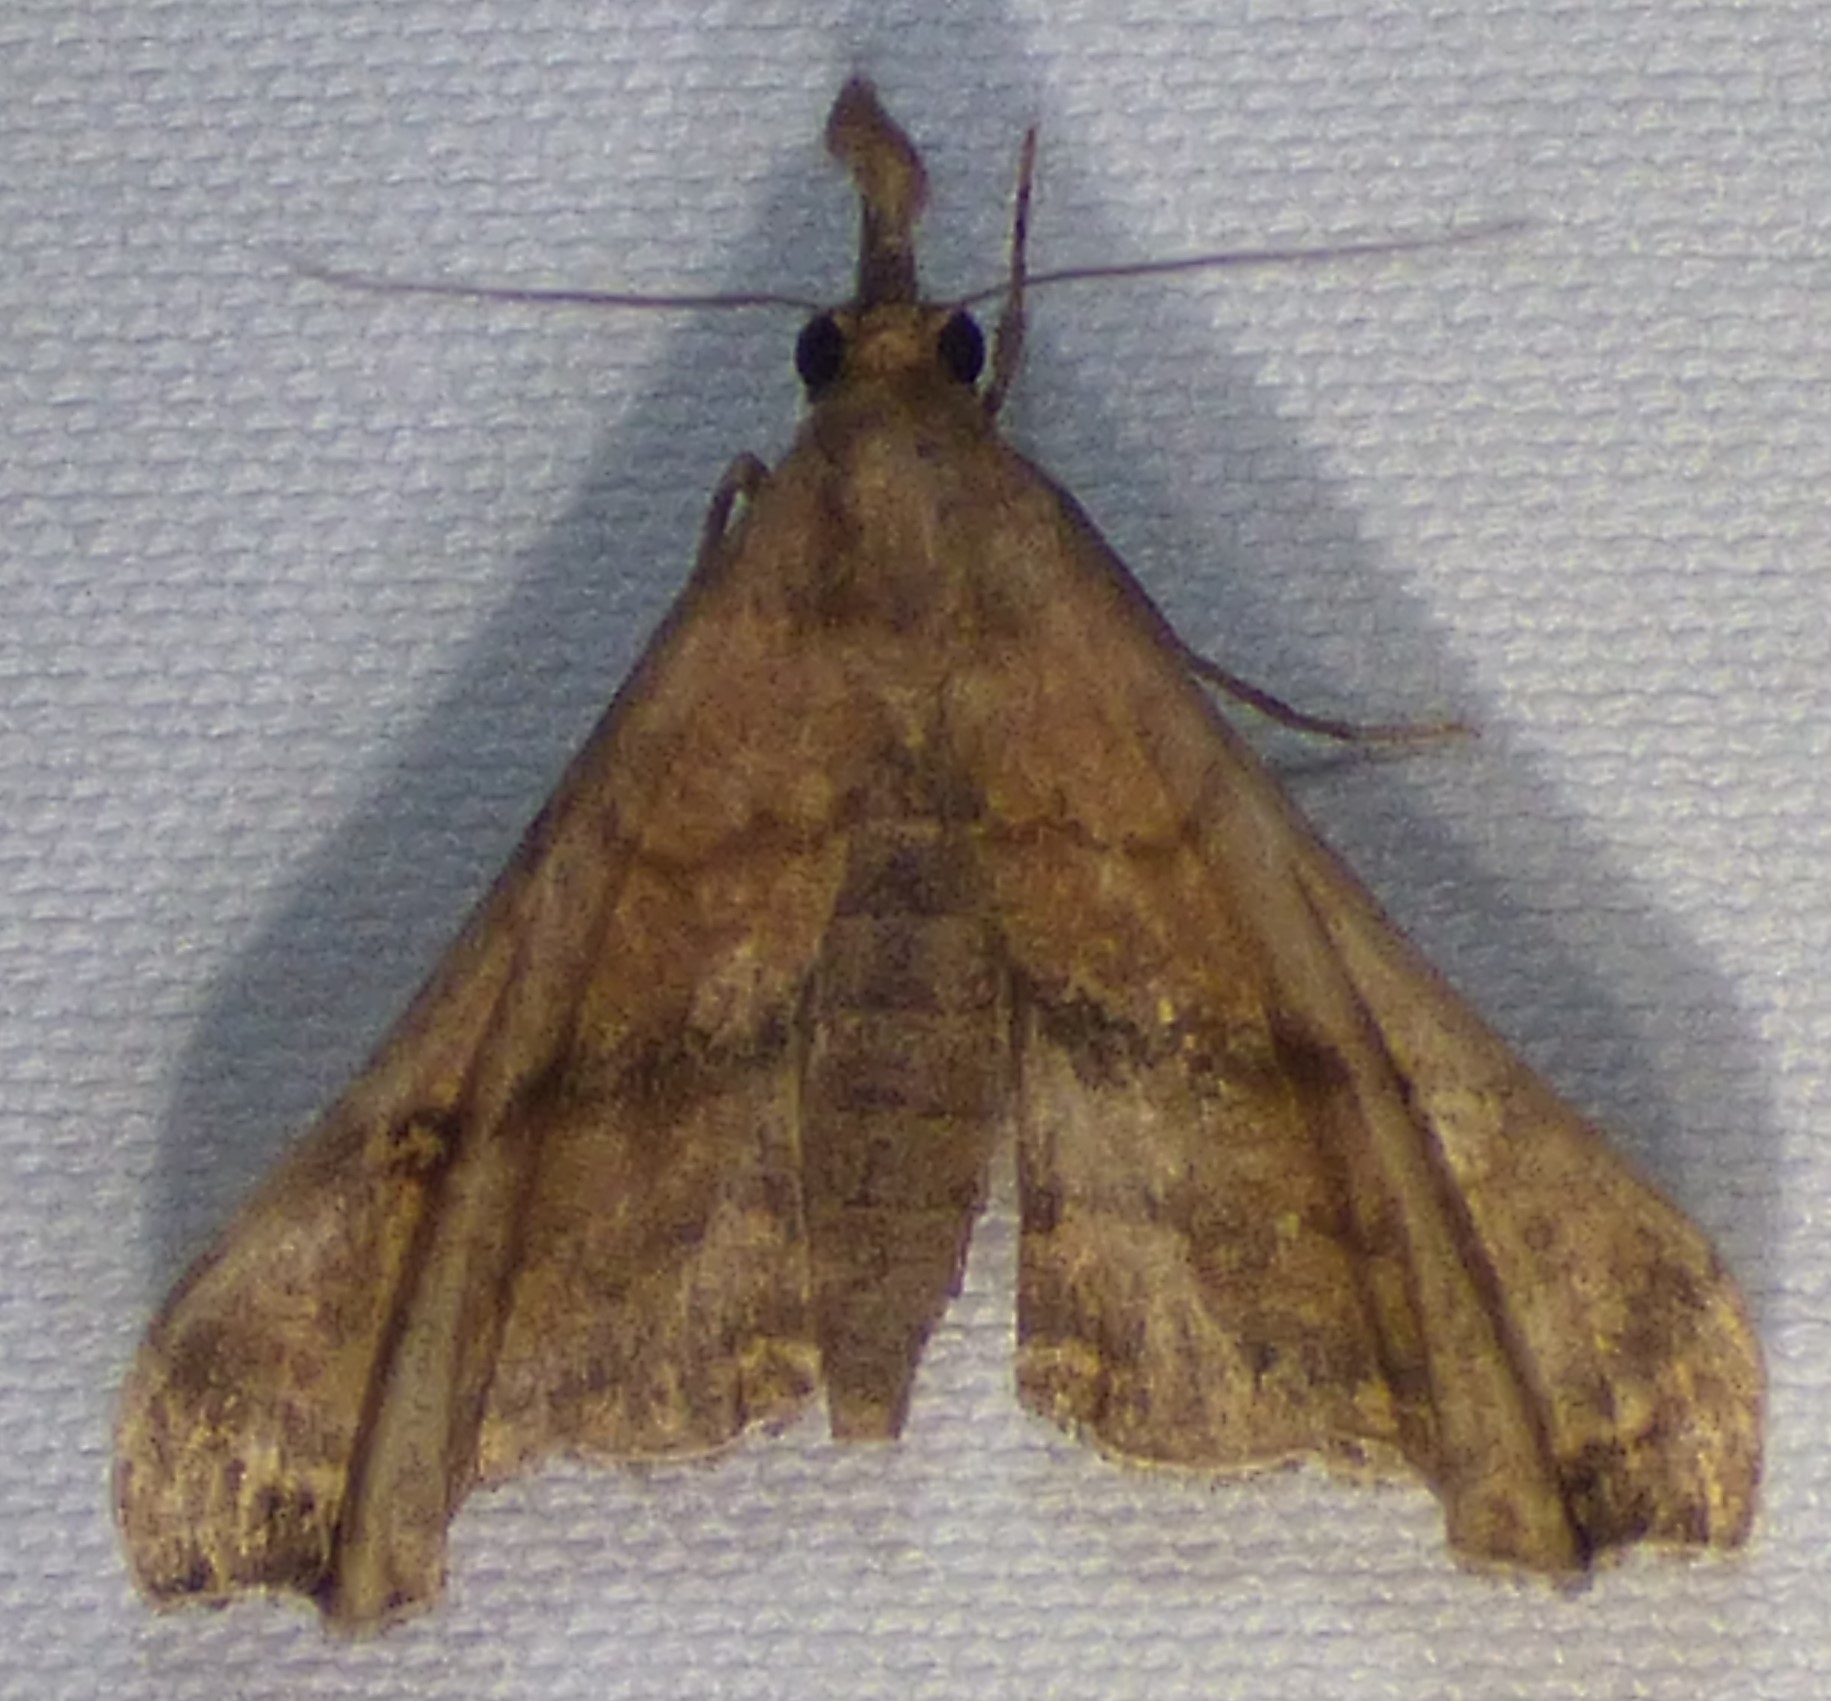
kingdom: Animalia
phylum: Arthropoda
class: Insecta
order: Lepidoptera
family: Erebidae
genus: Palthis
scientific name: Palthis asopialis
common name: Faint-spotted palthis moth
